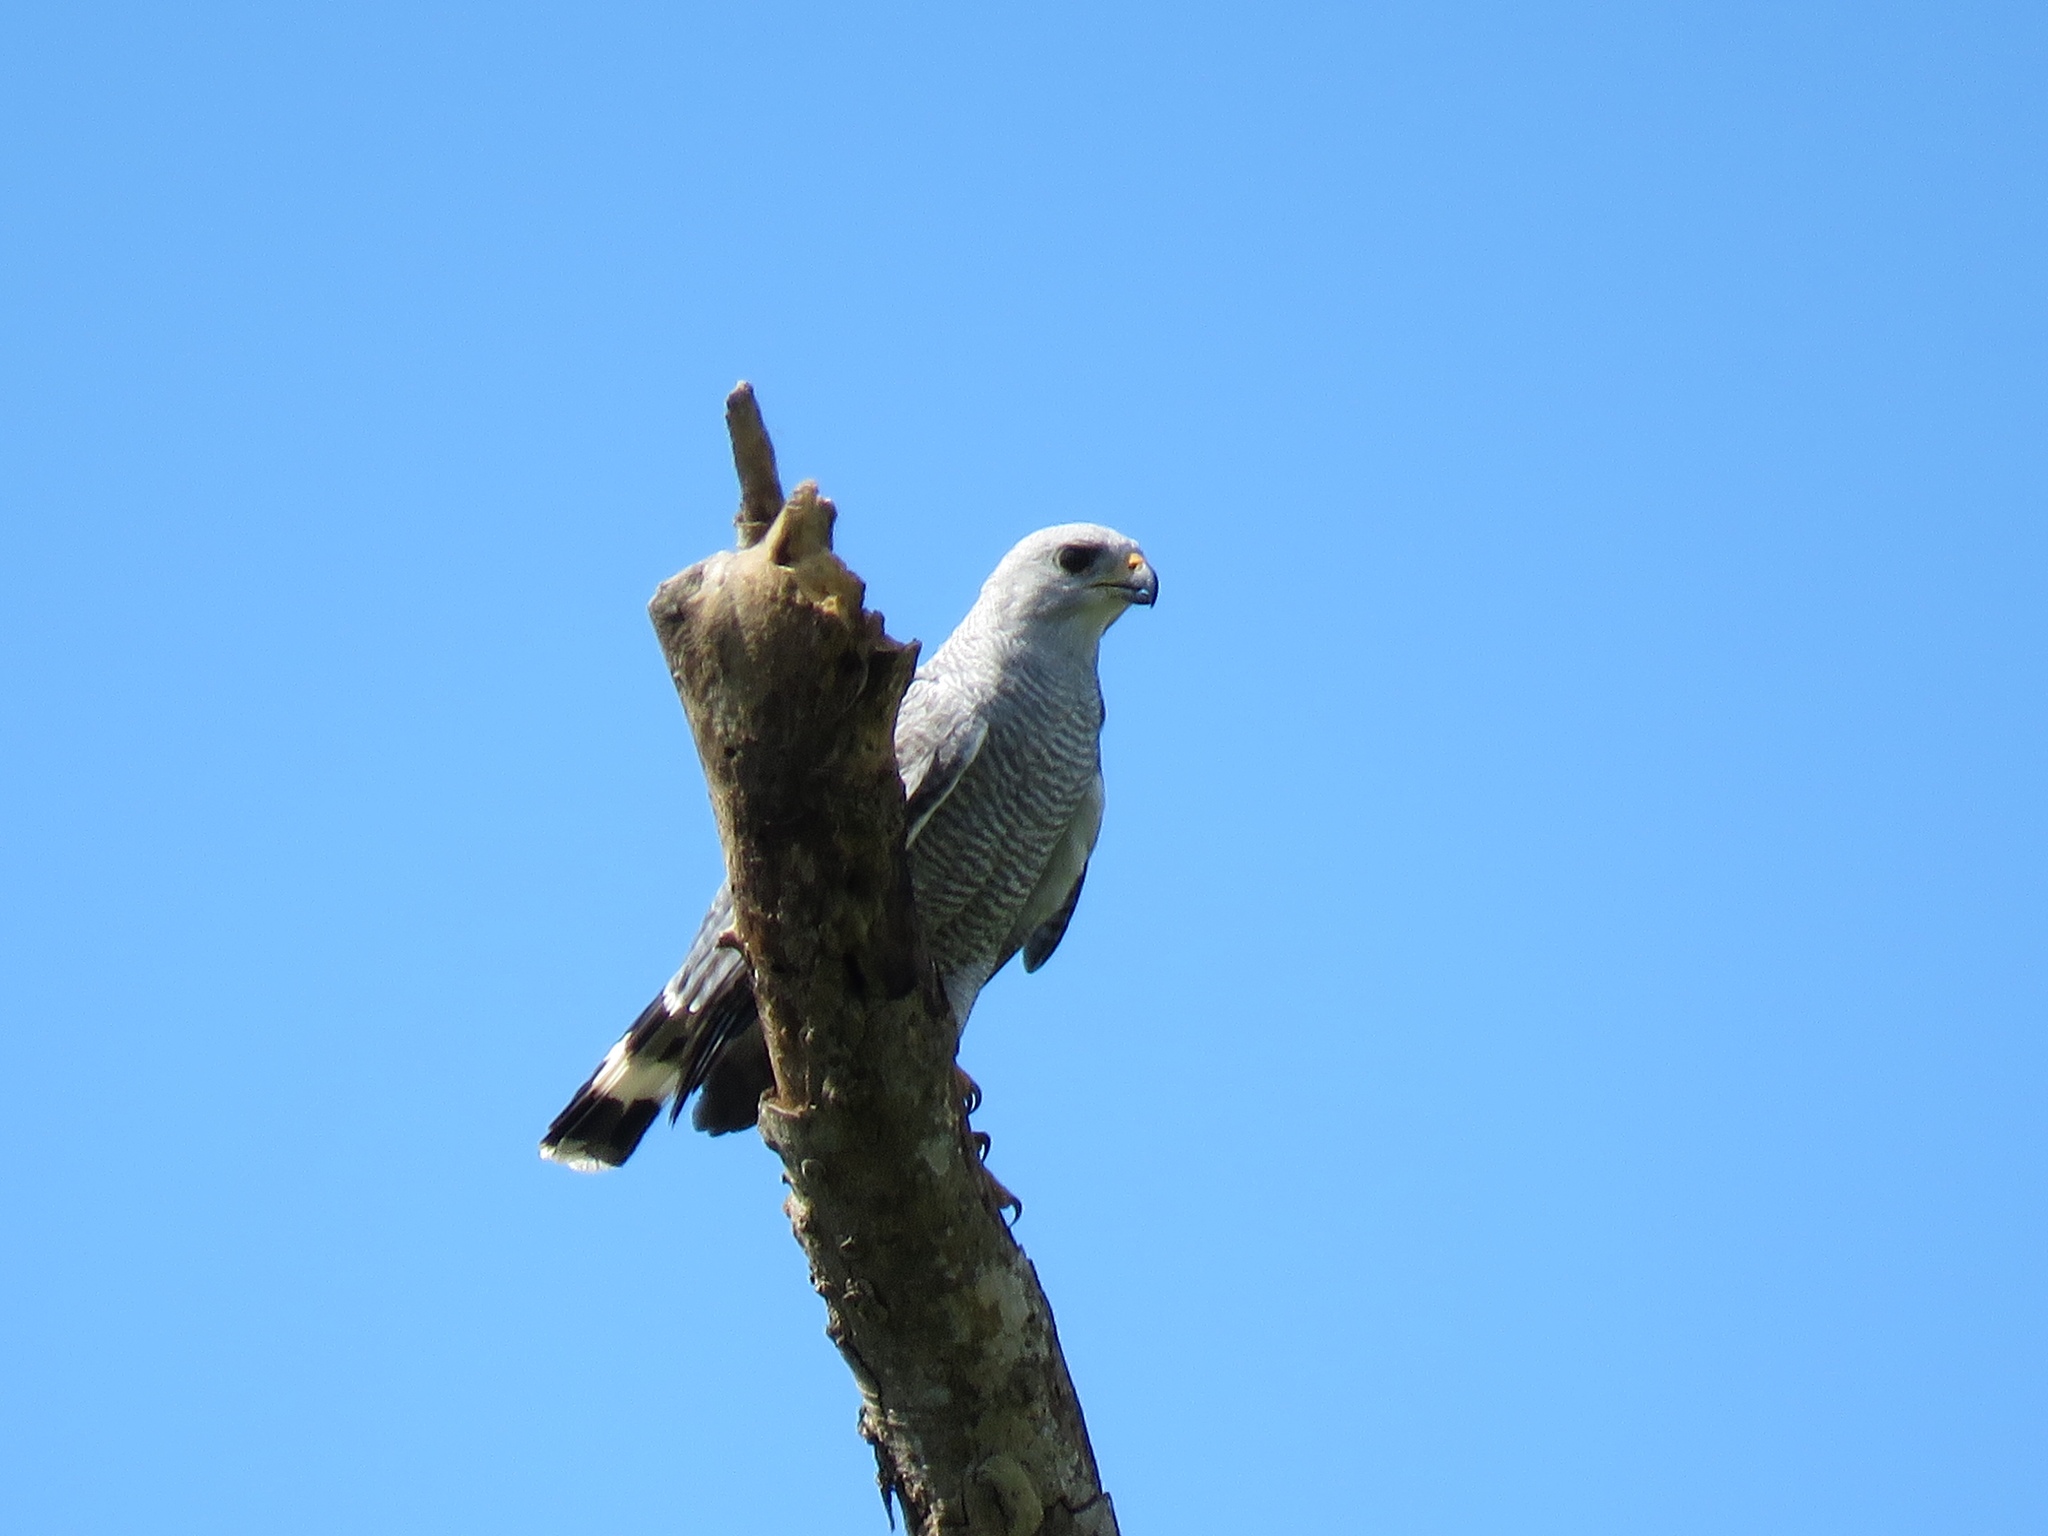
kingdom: Animalia
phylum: Chordata
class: Aves
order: Accipitriformes
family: Accipitridae
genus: Buteo
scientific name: Buteo nitidus
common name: Grey-lined hawk
